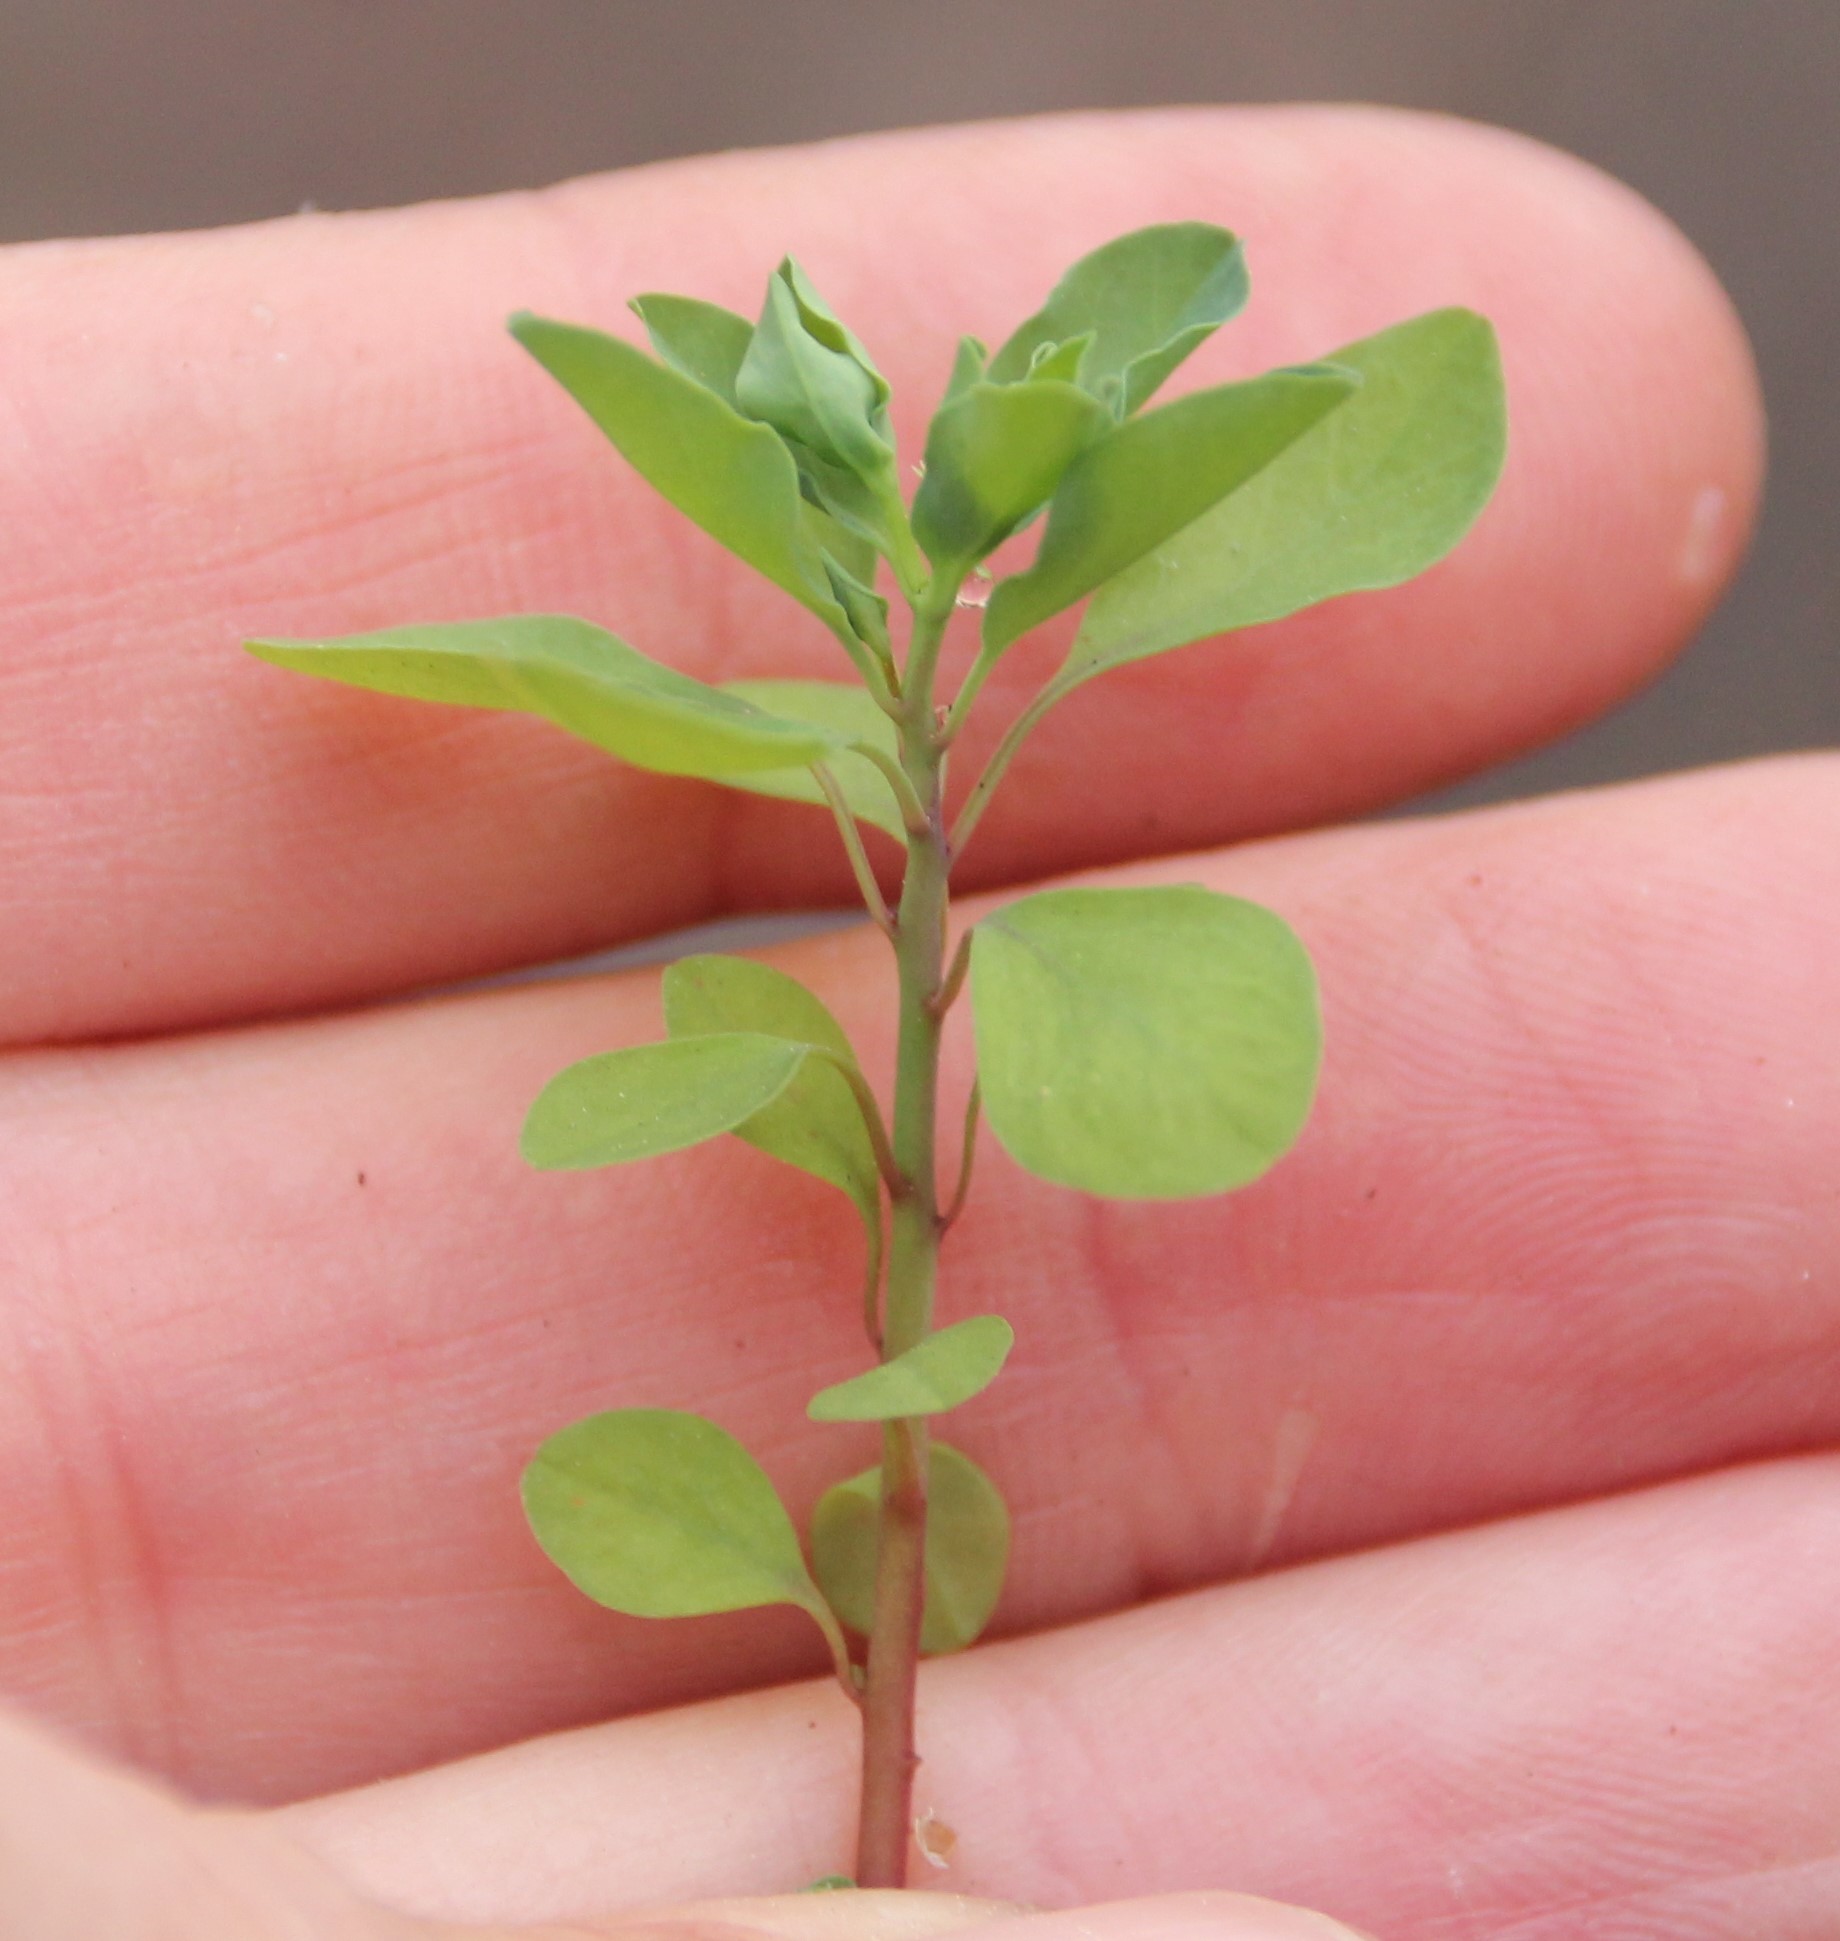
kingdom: Plantae
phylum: Tracheophyta
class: Magnoliopsida
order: Malpighiales
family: Euphorbiaceae
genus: Euphorbia
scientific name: Euphorbia peplus
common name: Petty spurge
